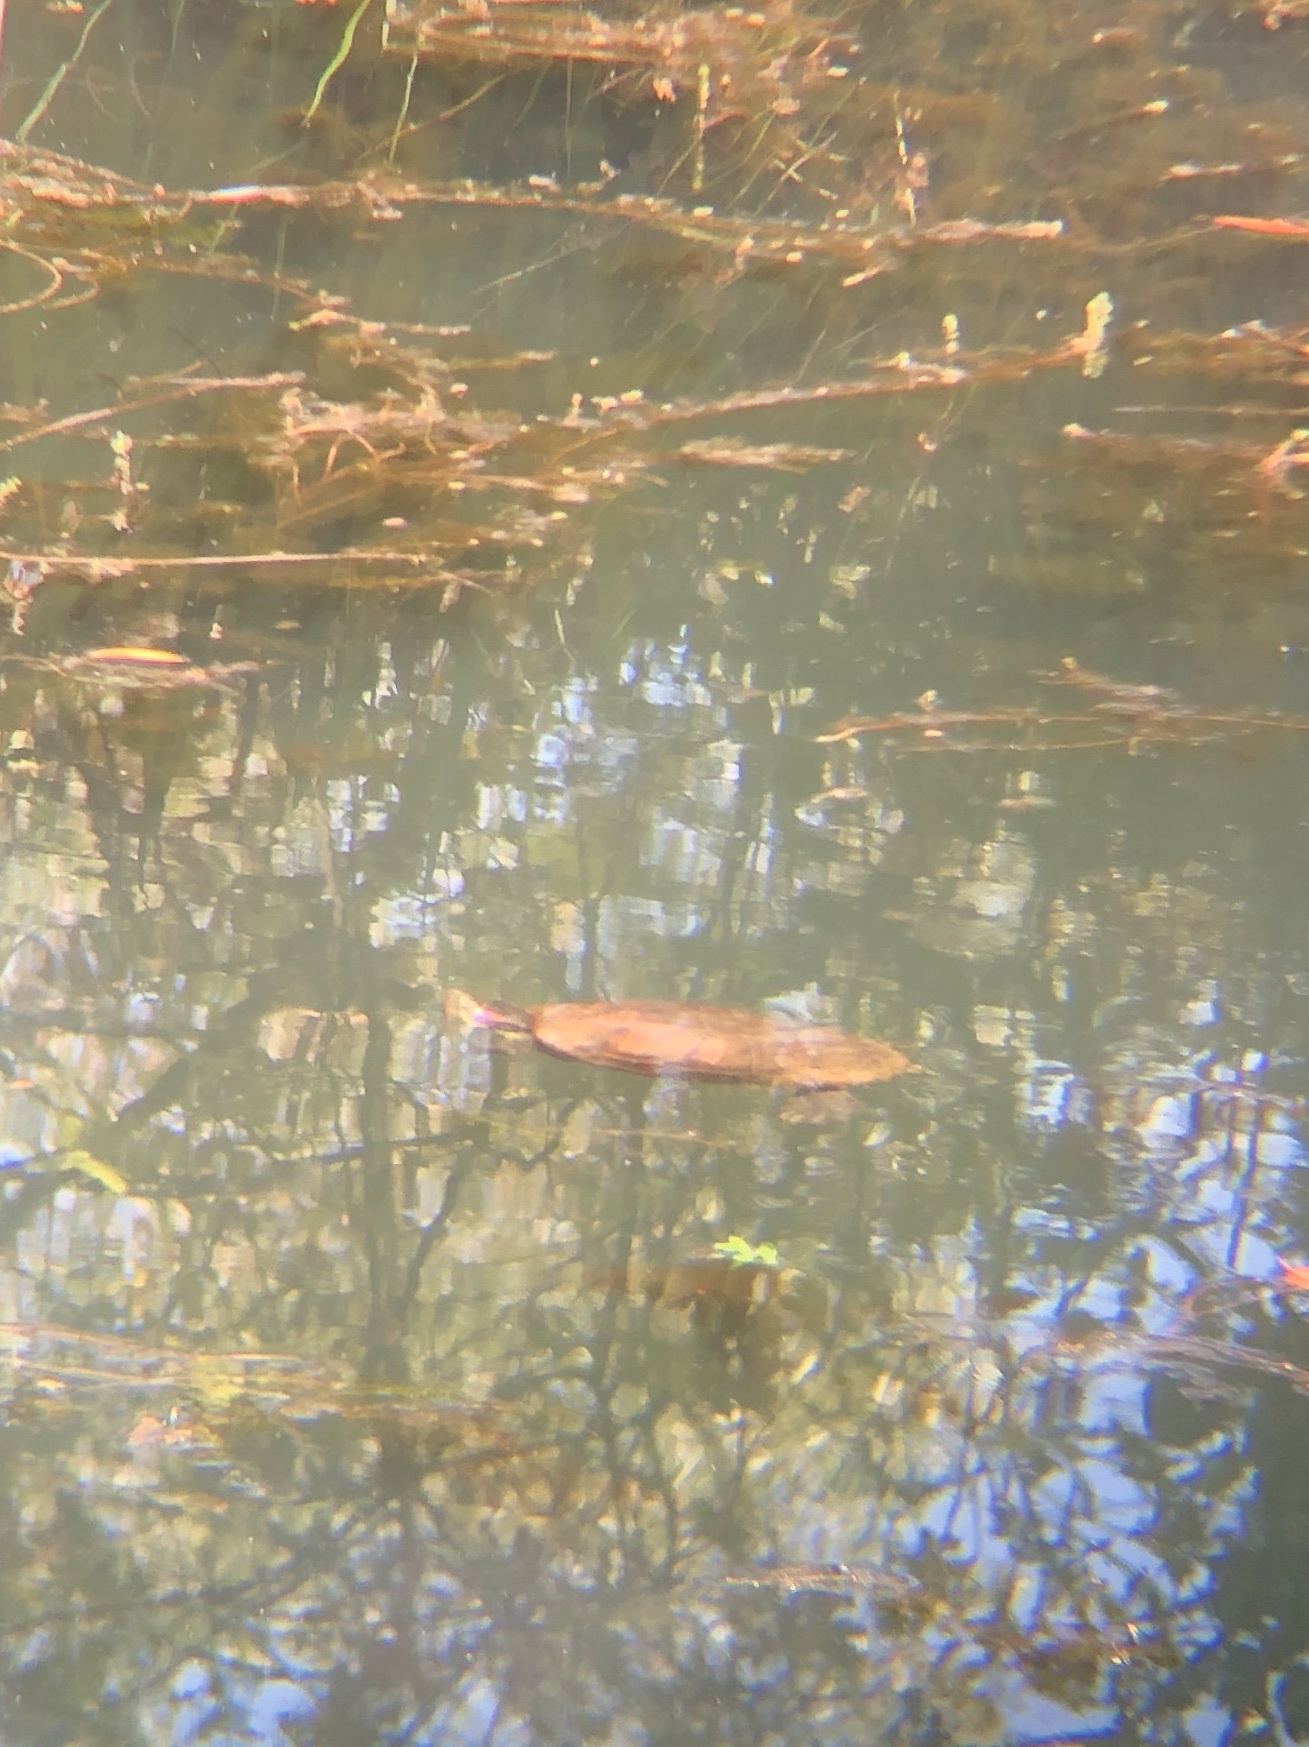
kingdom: Animalia
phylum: Chordata
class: Testudines
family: Emydidae
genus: Trachemys
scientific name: Trachemys scripta
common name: Slider
